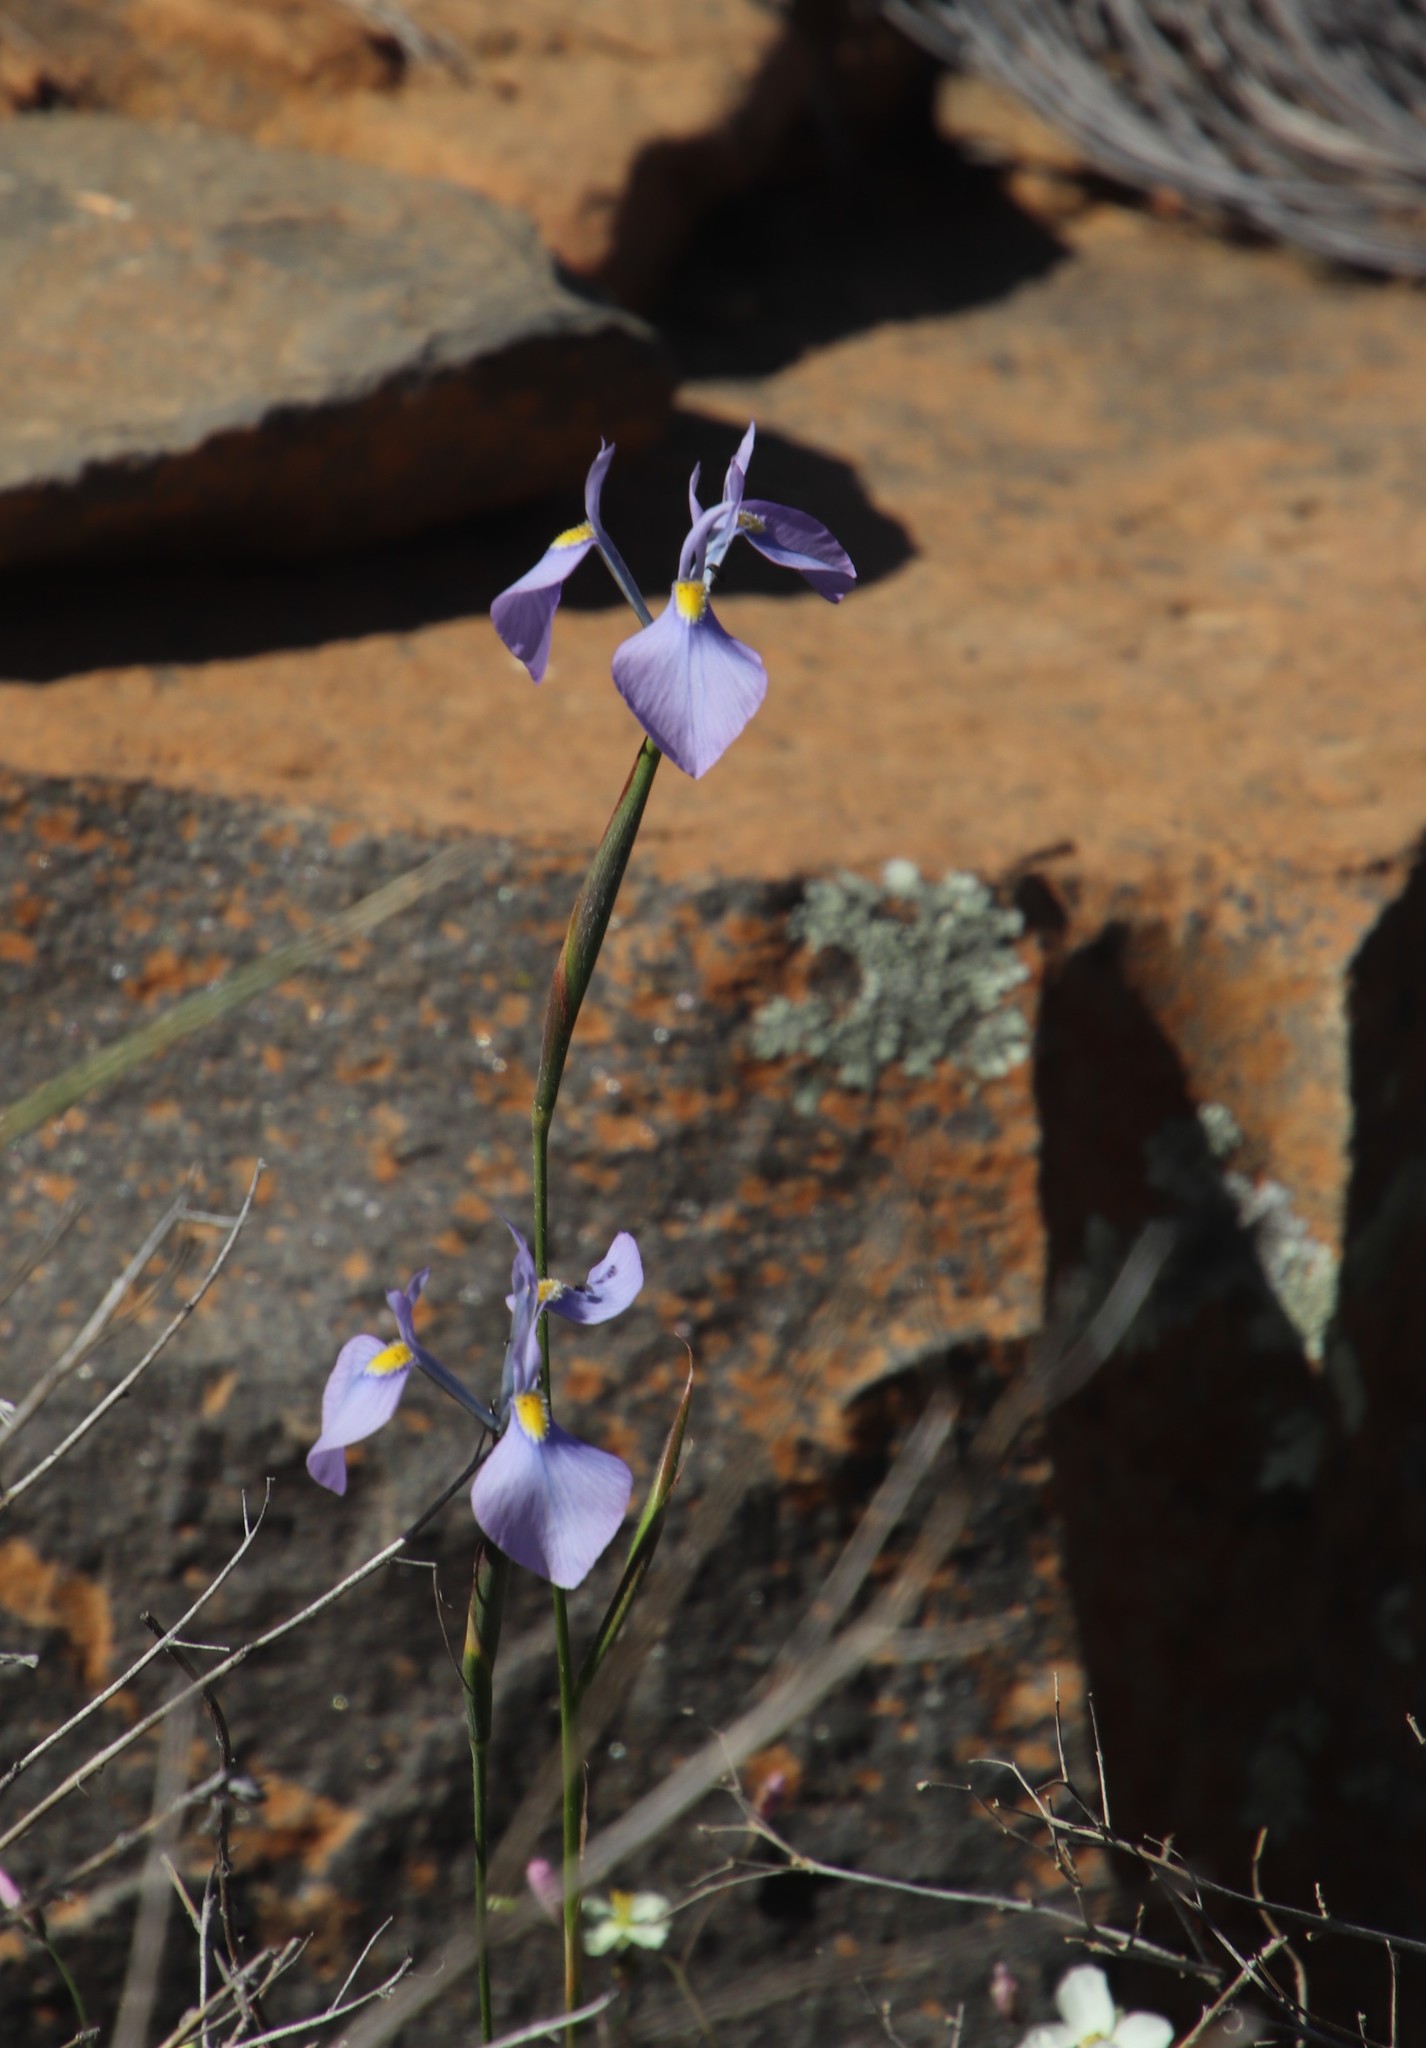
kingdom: Plantae
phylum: Tracheophyta
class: Liliopsida
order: Asparagales
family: Iridaceae
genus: Moraea
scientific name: Moraea tripetala
